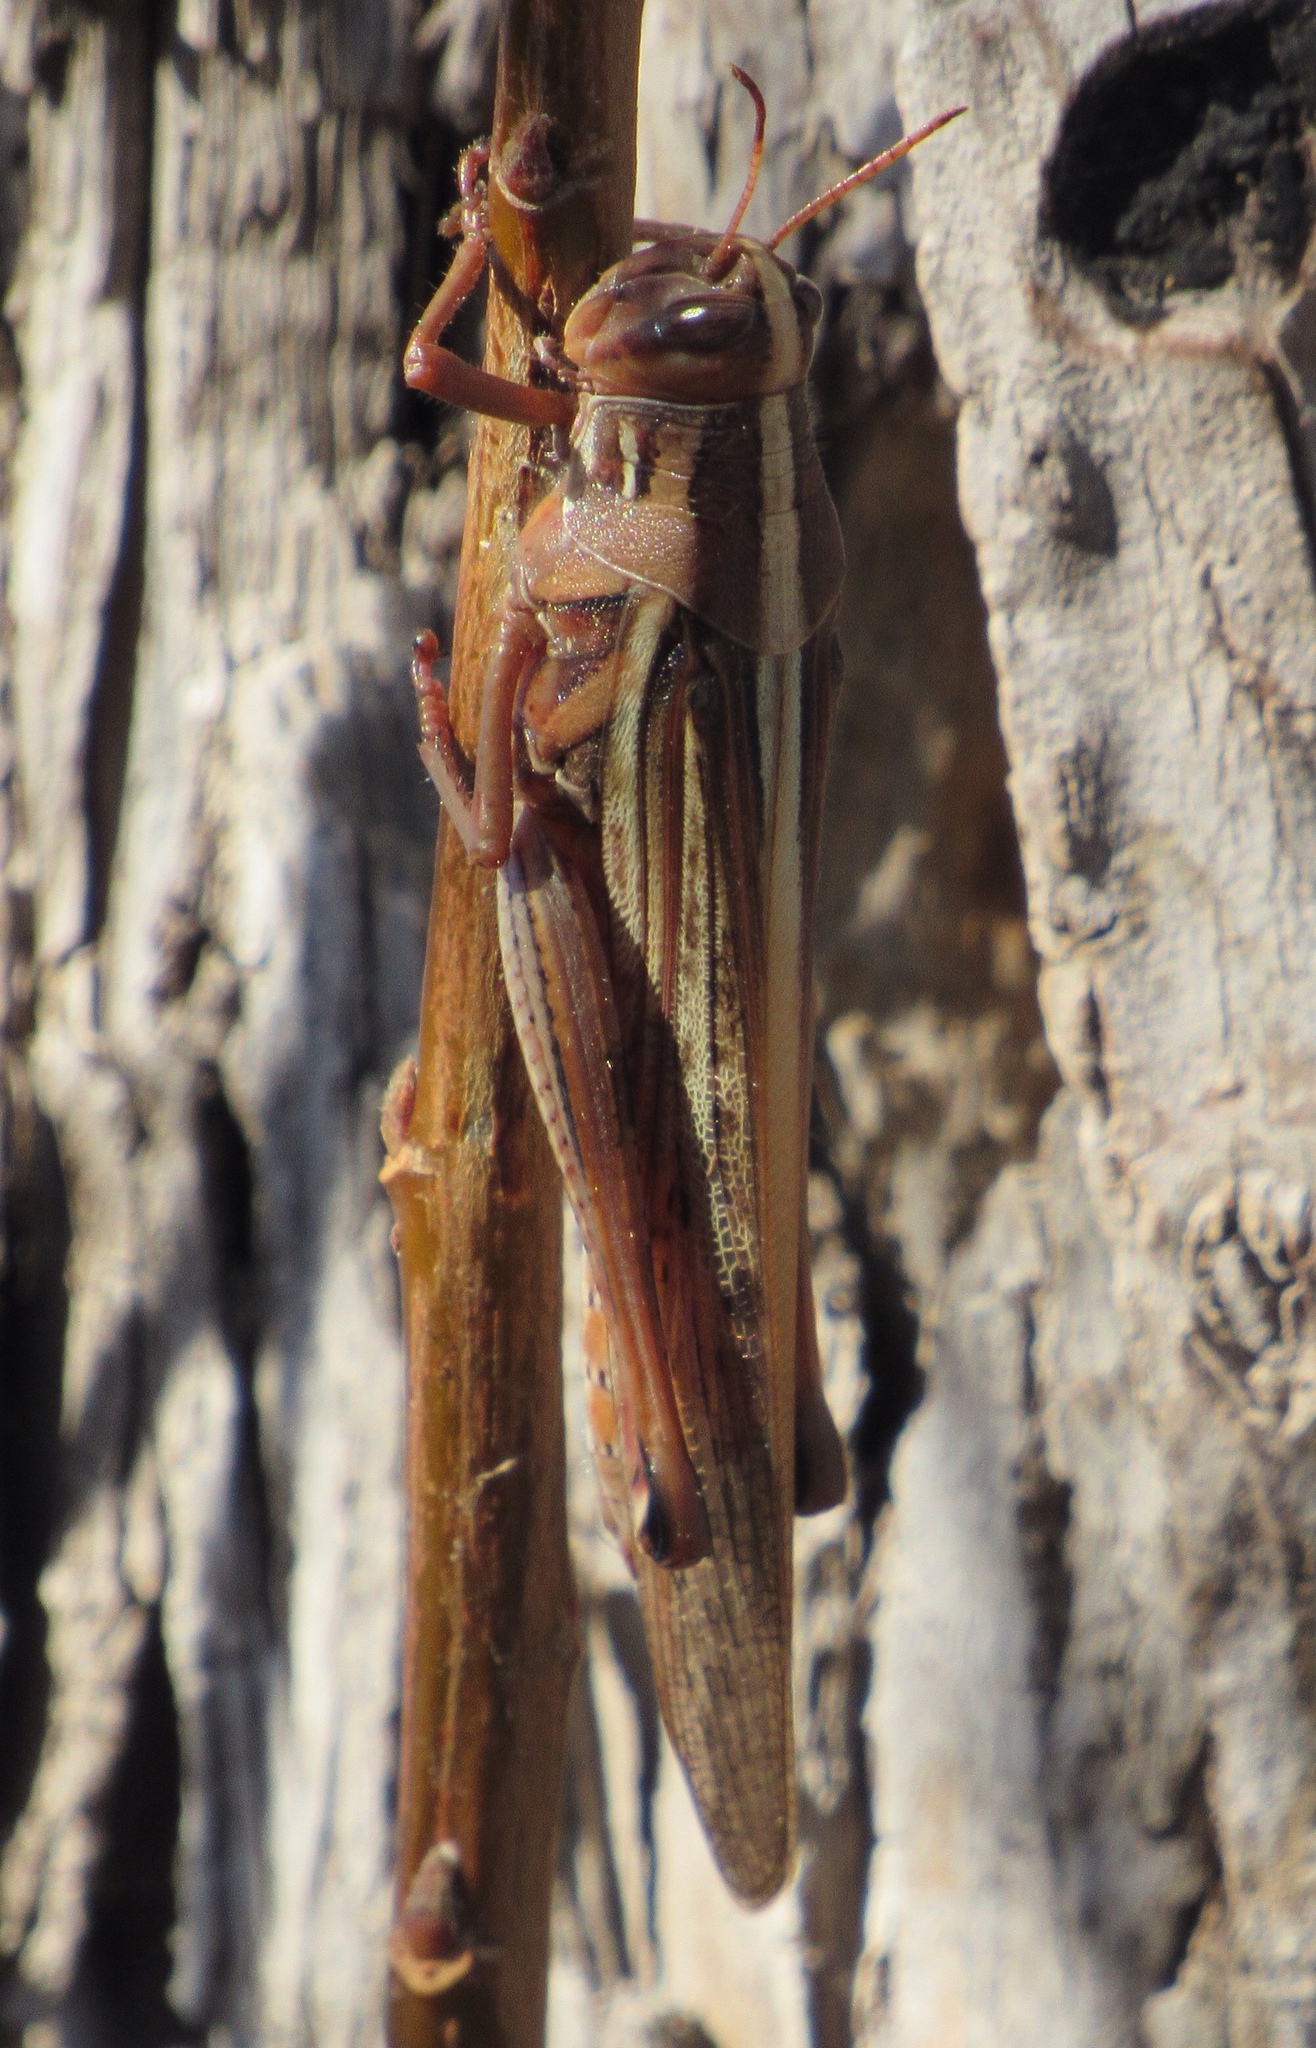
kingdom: Animalia
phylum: Arthropoda
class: Insecta
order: Orthoptera
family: Acrididae
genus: Schistocerca
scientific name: Schistocerca americana
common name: American bird locust
